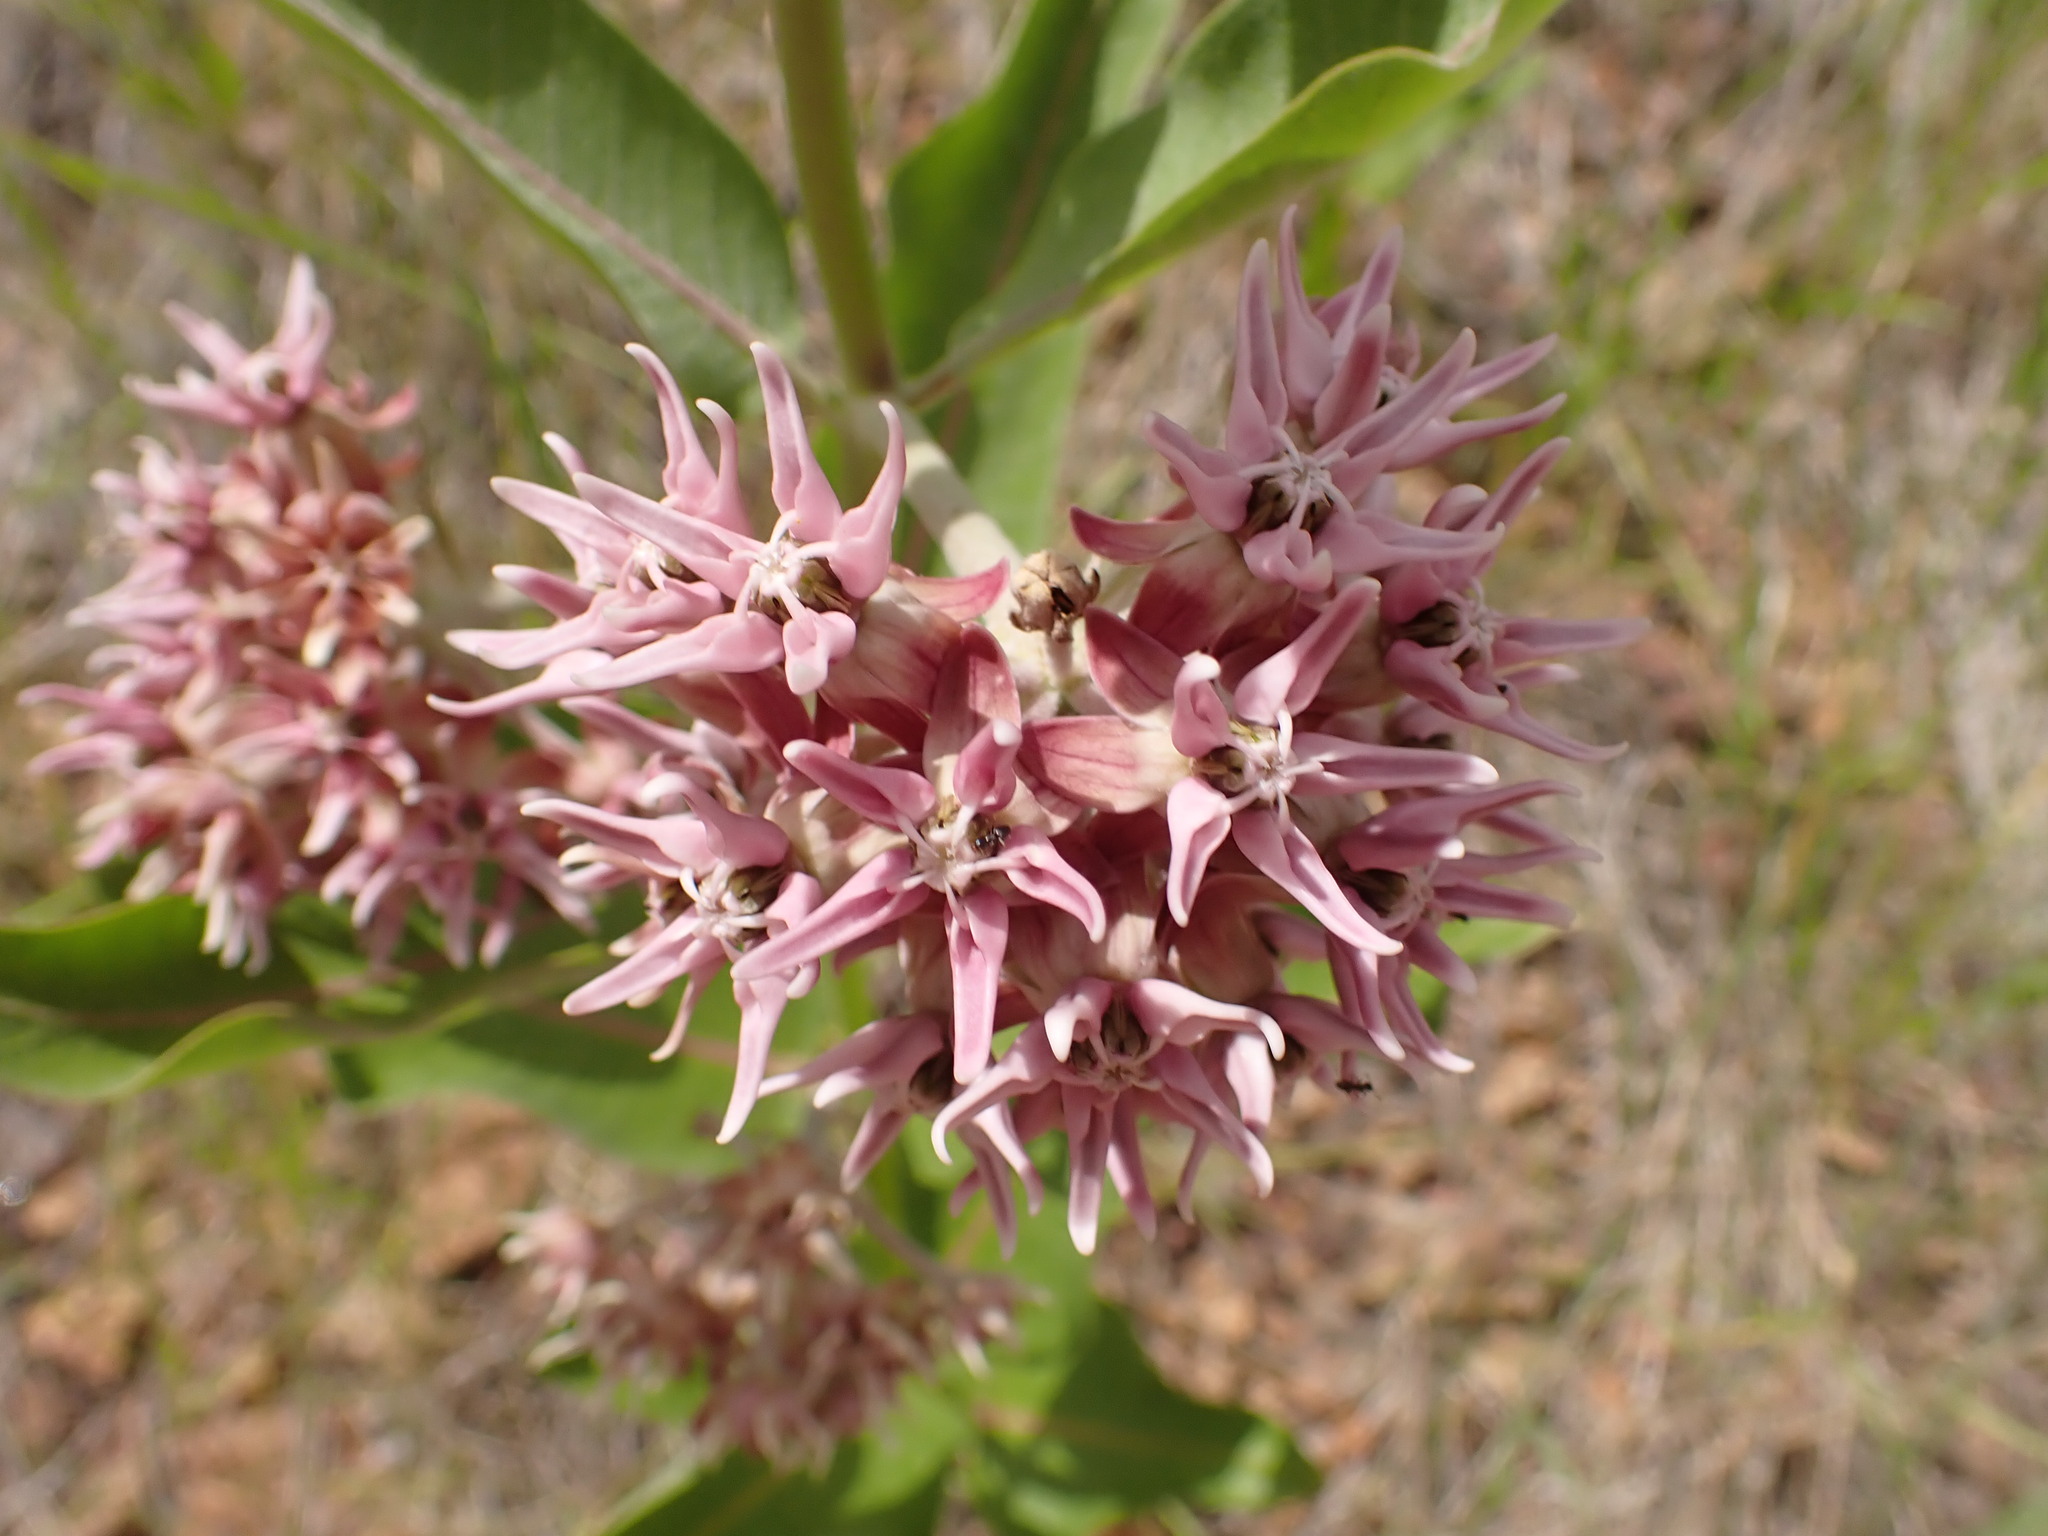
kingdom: Plantae
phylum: Tracheophyta
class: Magnoliopsida
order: Gentianales
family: Apocynaceae
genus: Asclepias
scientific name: Asclepias speciosa
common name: Showy milkweed
